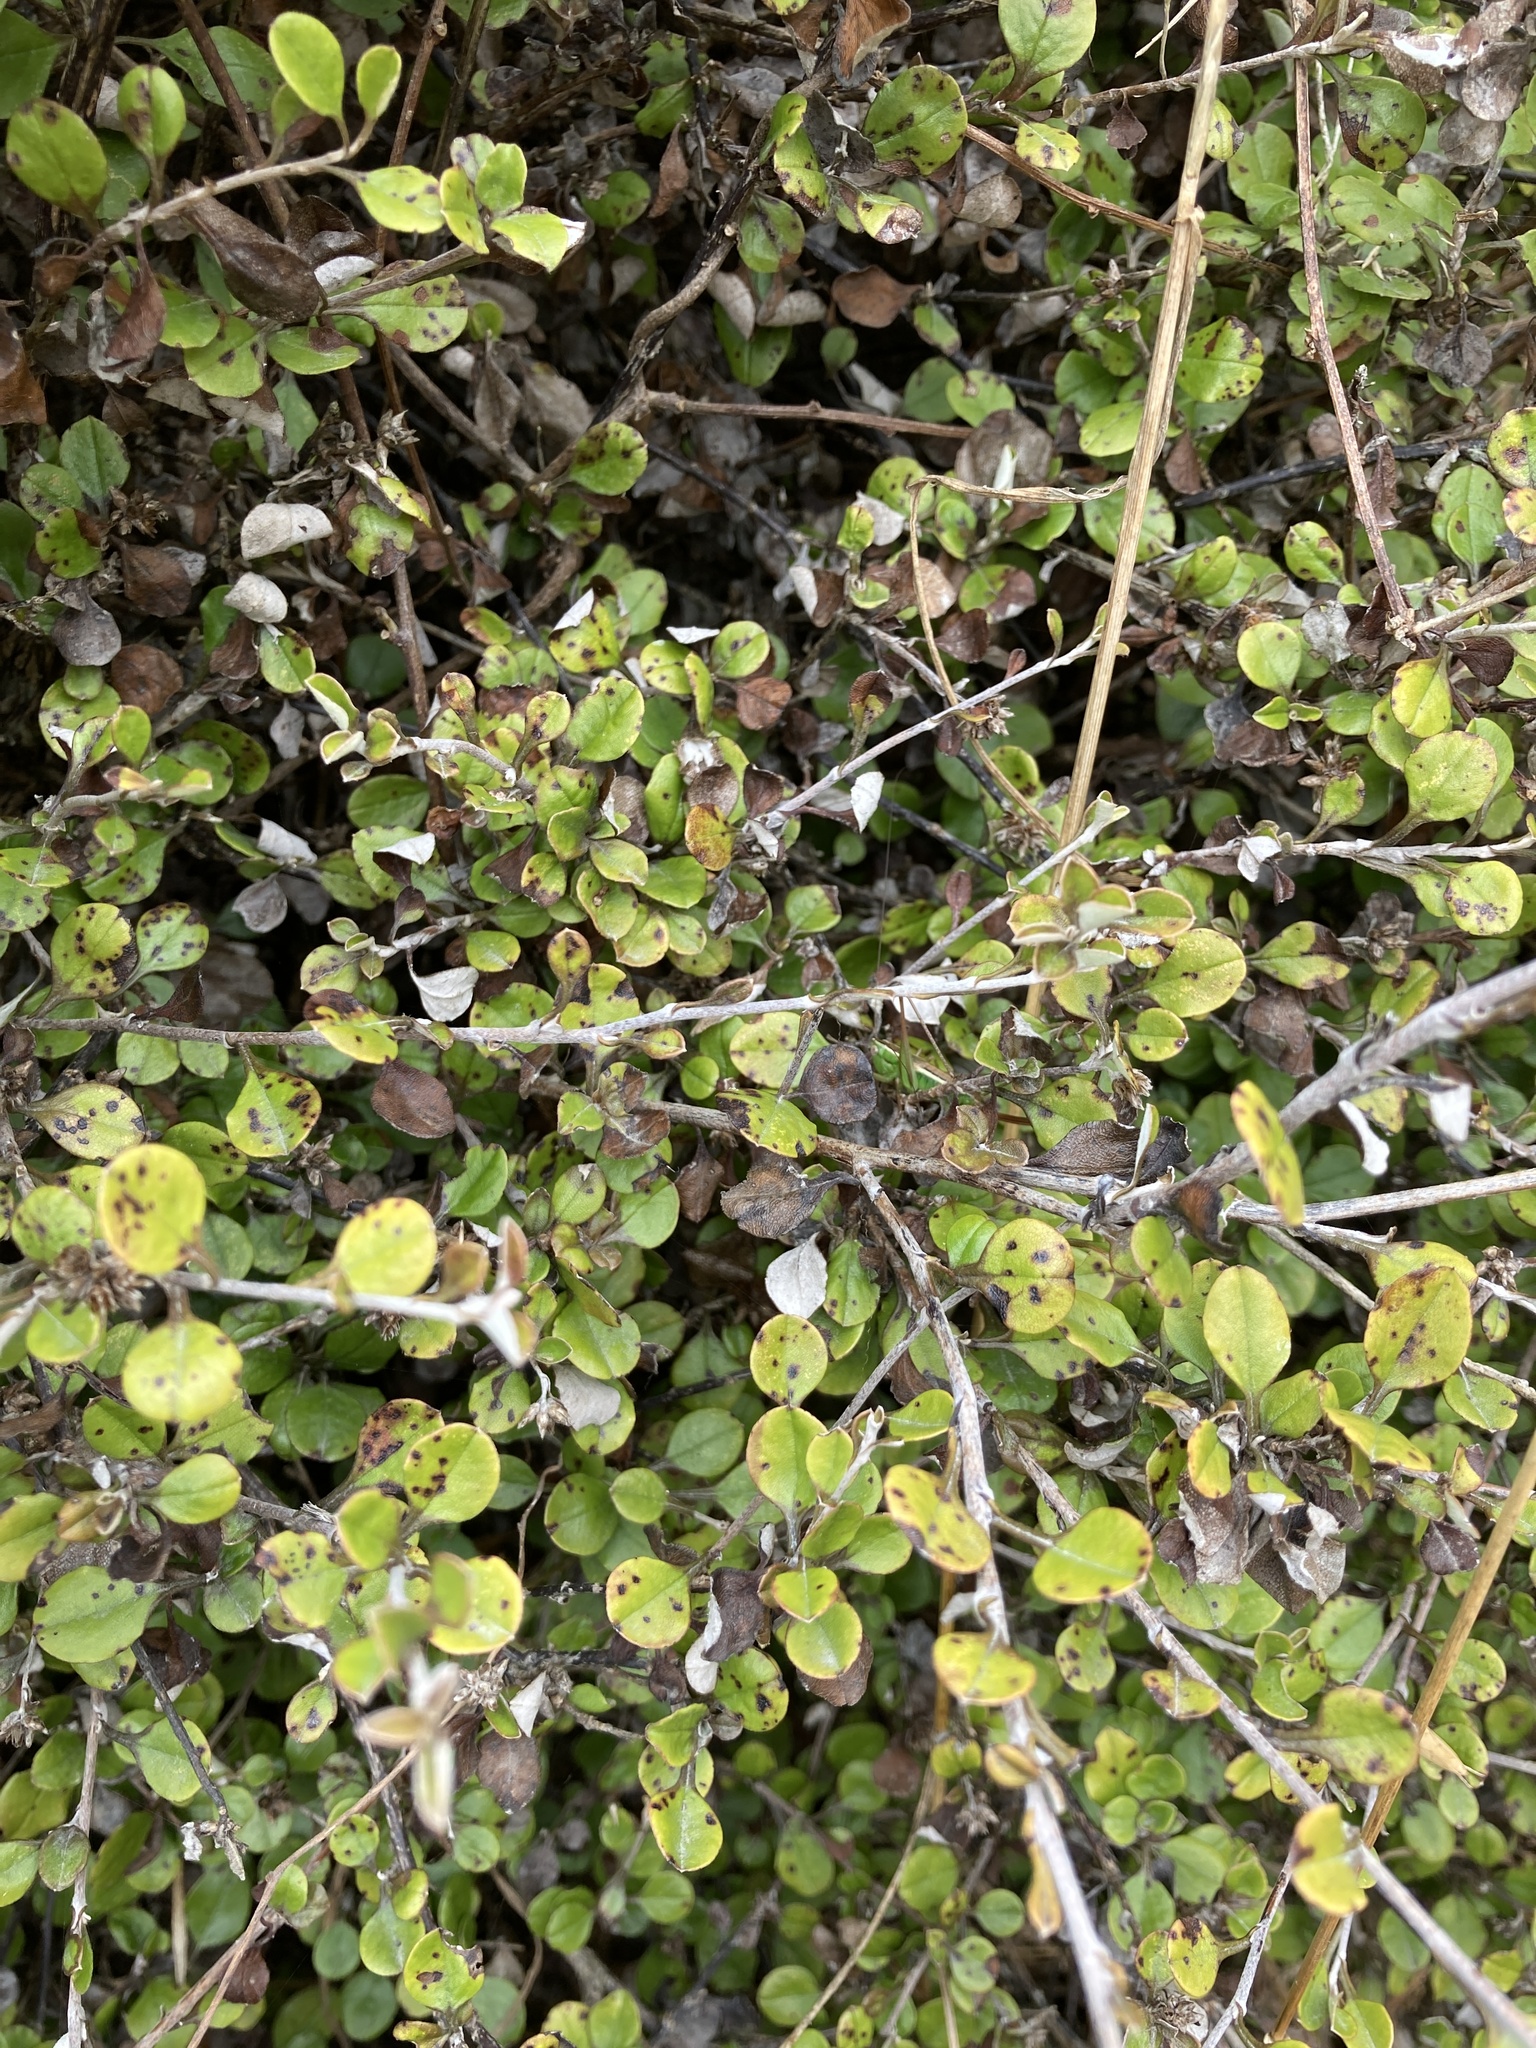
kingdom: Plantae
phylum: Tracheophyta
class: Magnoliopsida
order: Asterales
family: Asteraceae
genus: Ozothamnus
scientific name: Ozothamnus glomeratus
